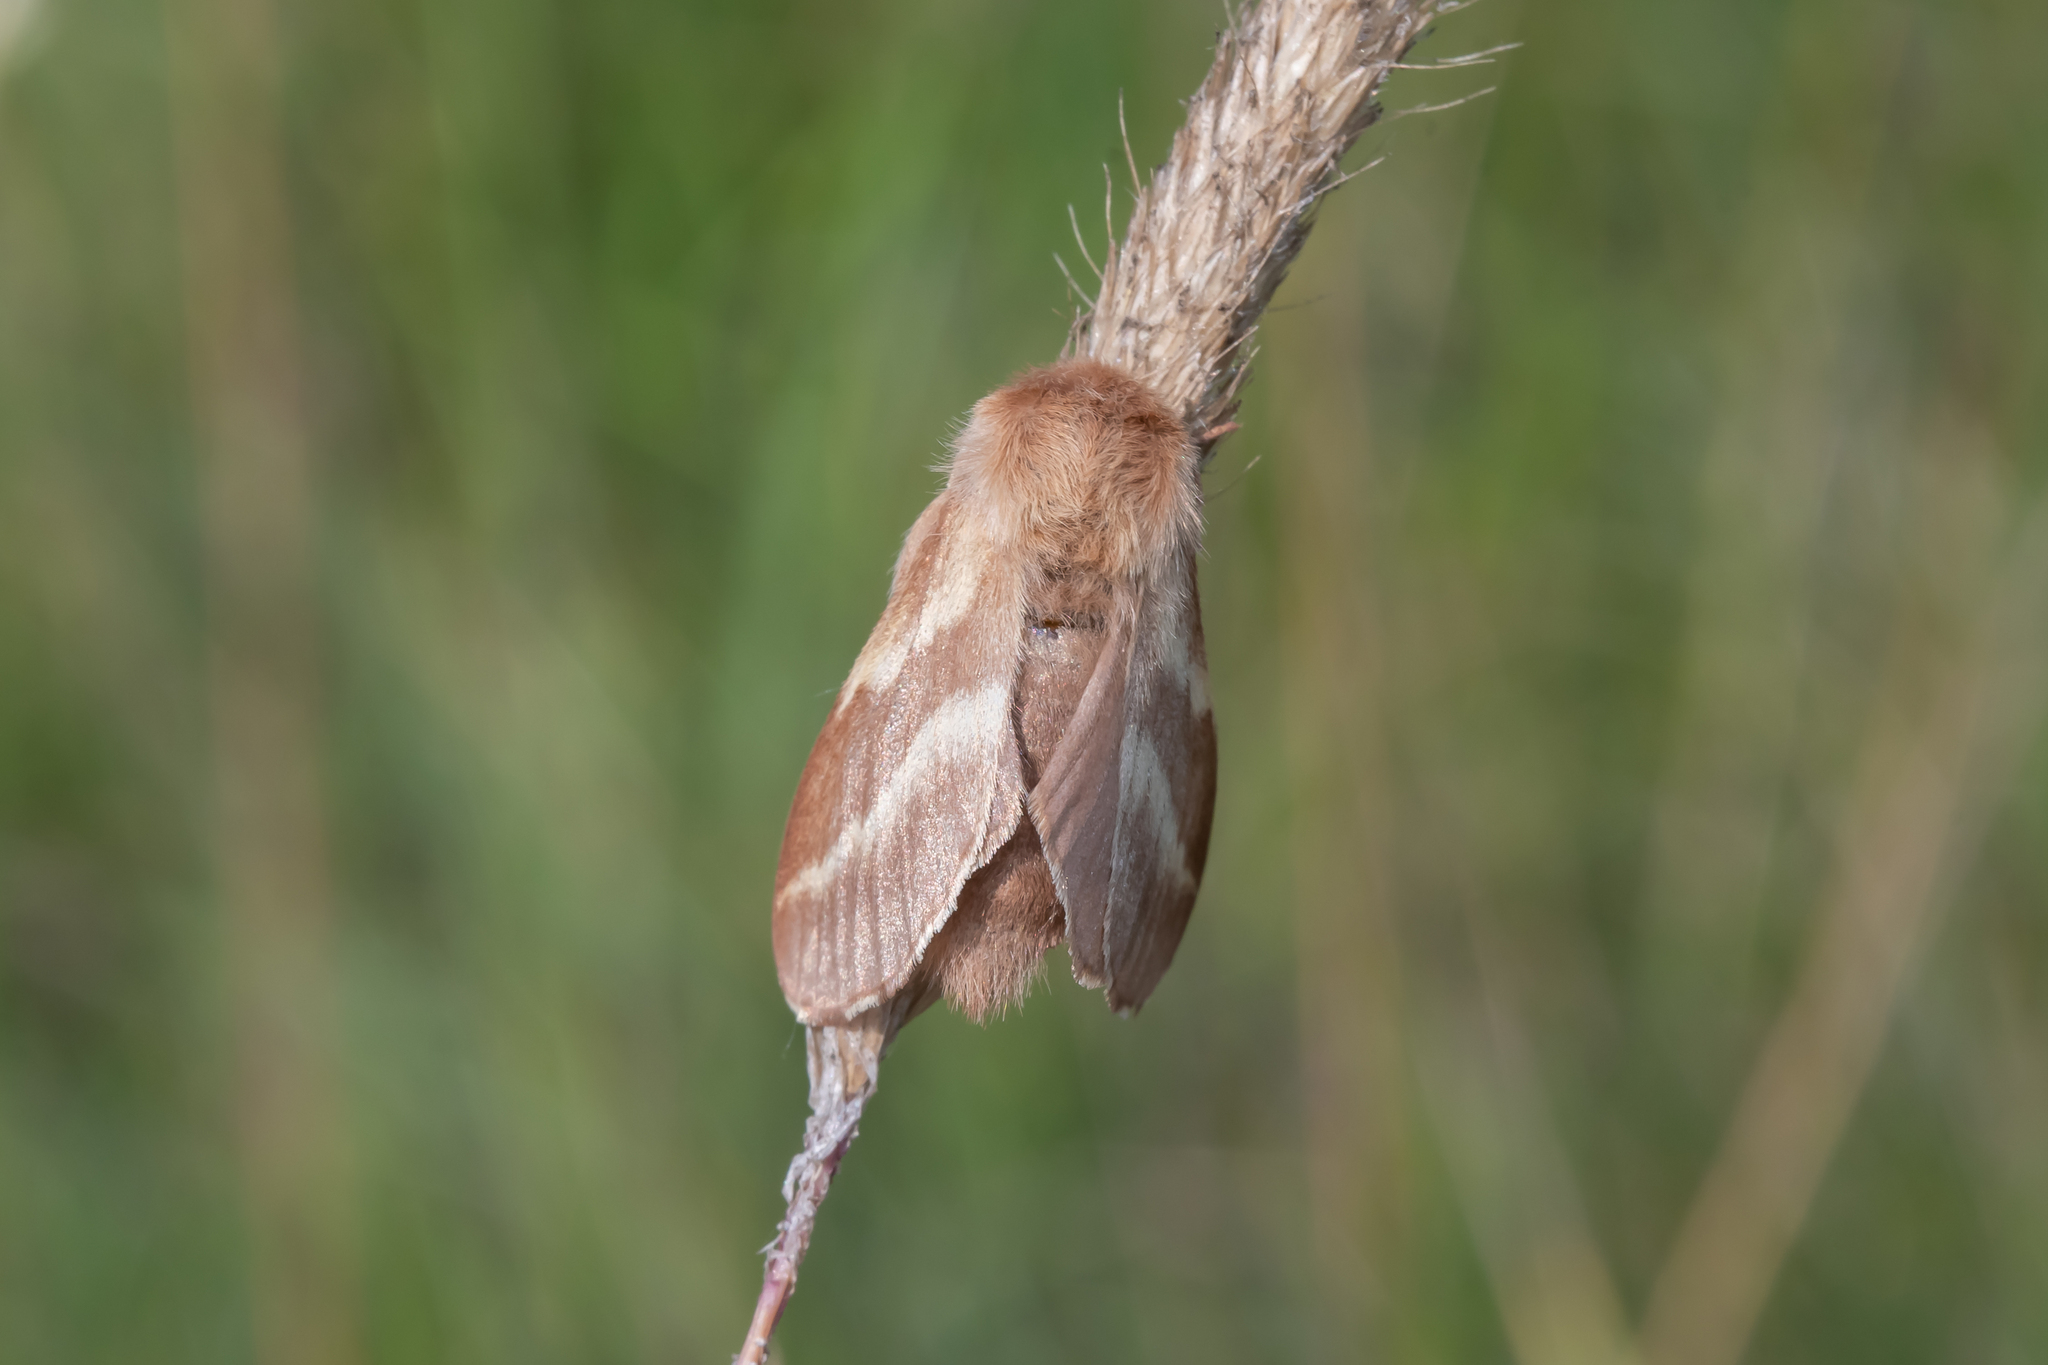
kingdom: Animalia
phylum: Arthropoda
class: Insecta
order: Lepidoptera
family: Lasiocampidae
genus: Malacosoma
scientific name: Malacosoma castrense
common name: Ground lackey
